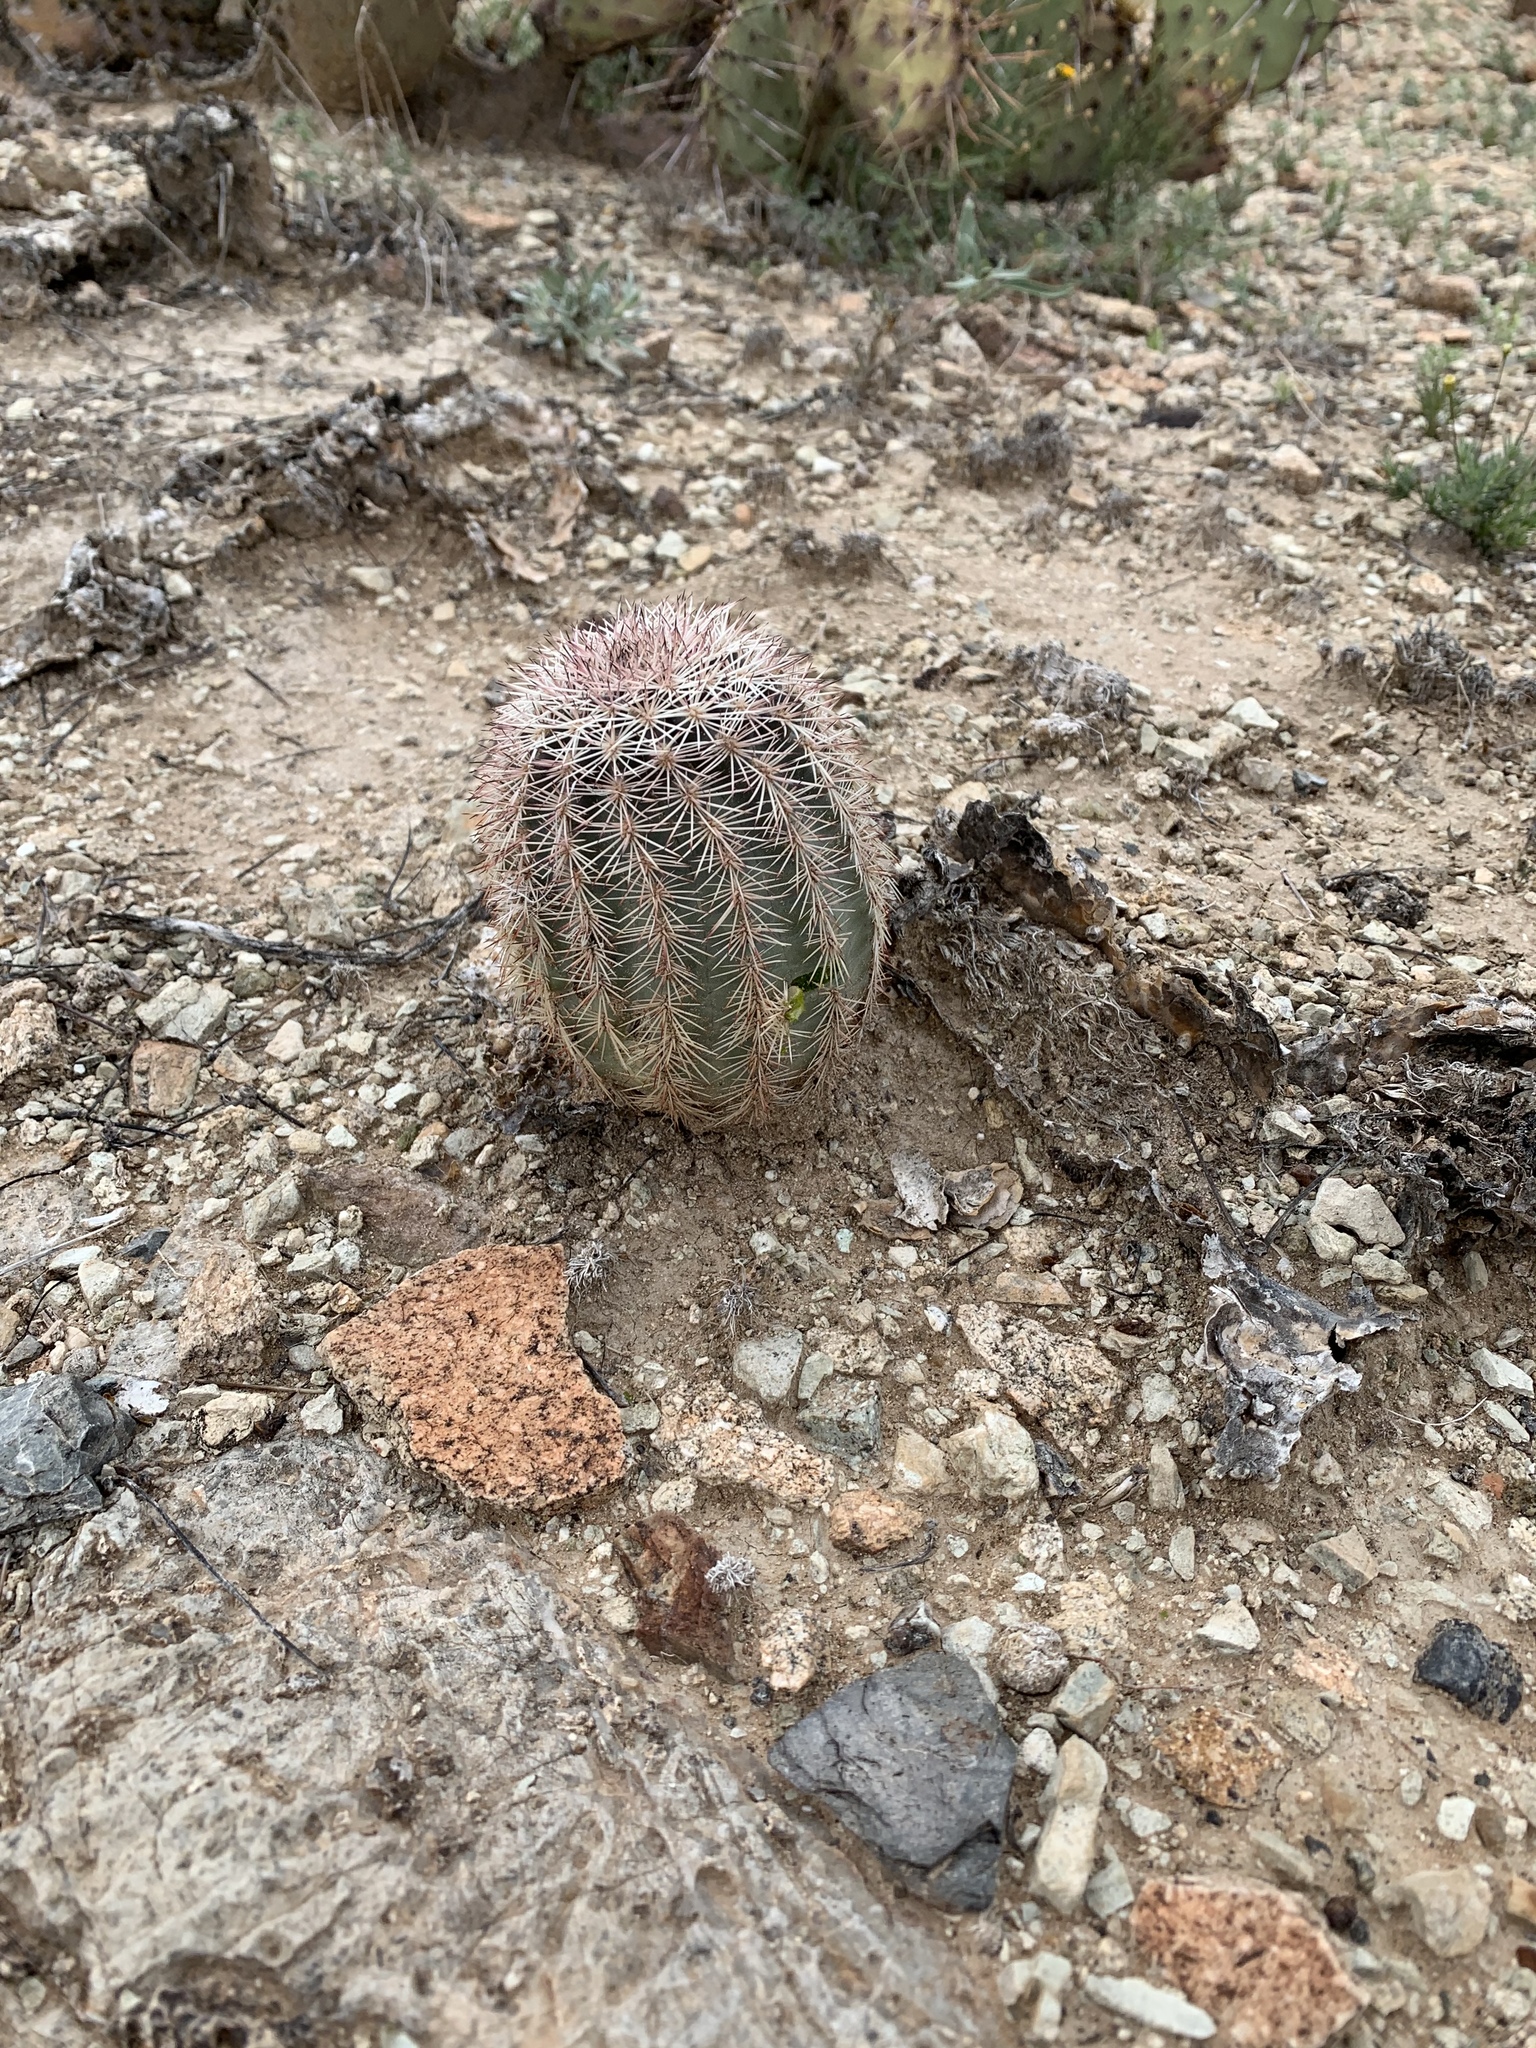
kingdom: Plantae
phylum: Tracheophyta
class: Magnoliopsida
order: Caryophyllales
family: Cactaceae
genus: Echinocereus
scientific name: Echinocereus dasyacanthus
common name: Spiny hedgehog cactus
